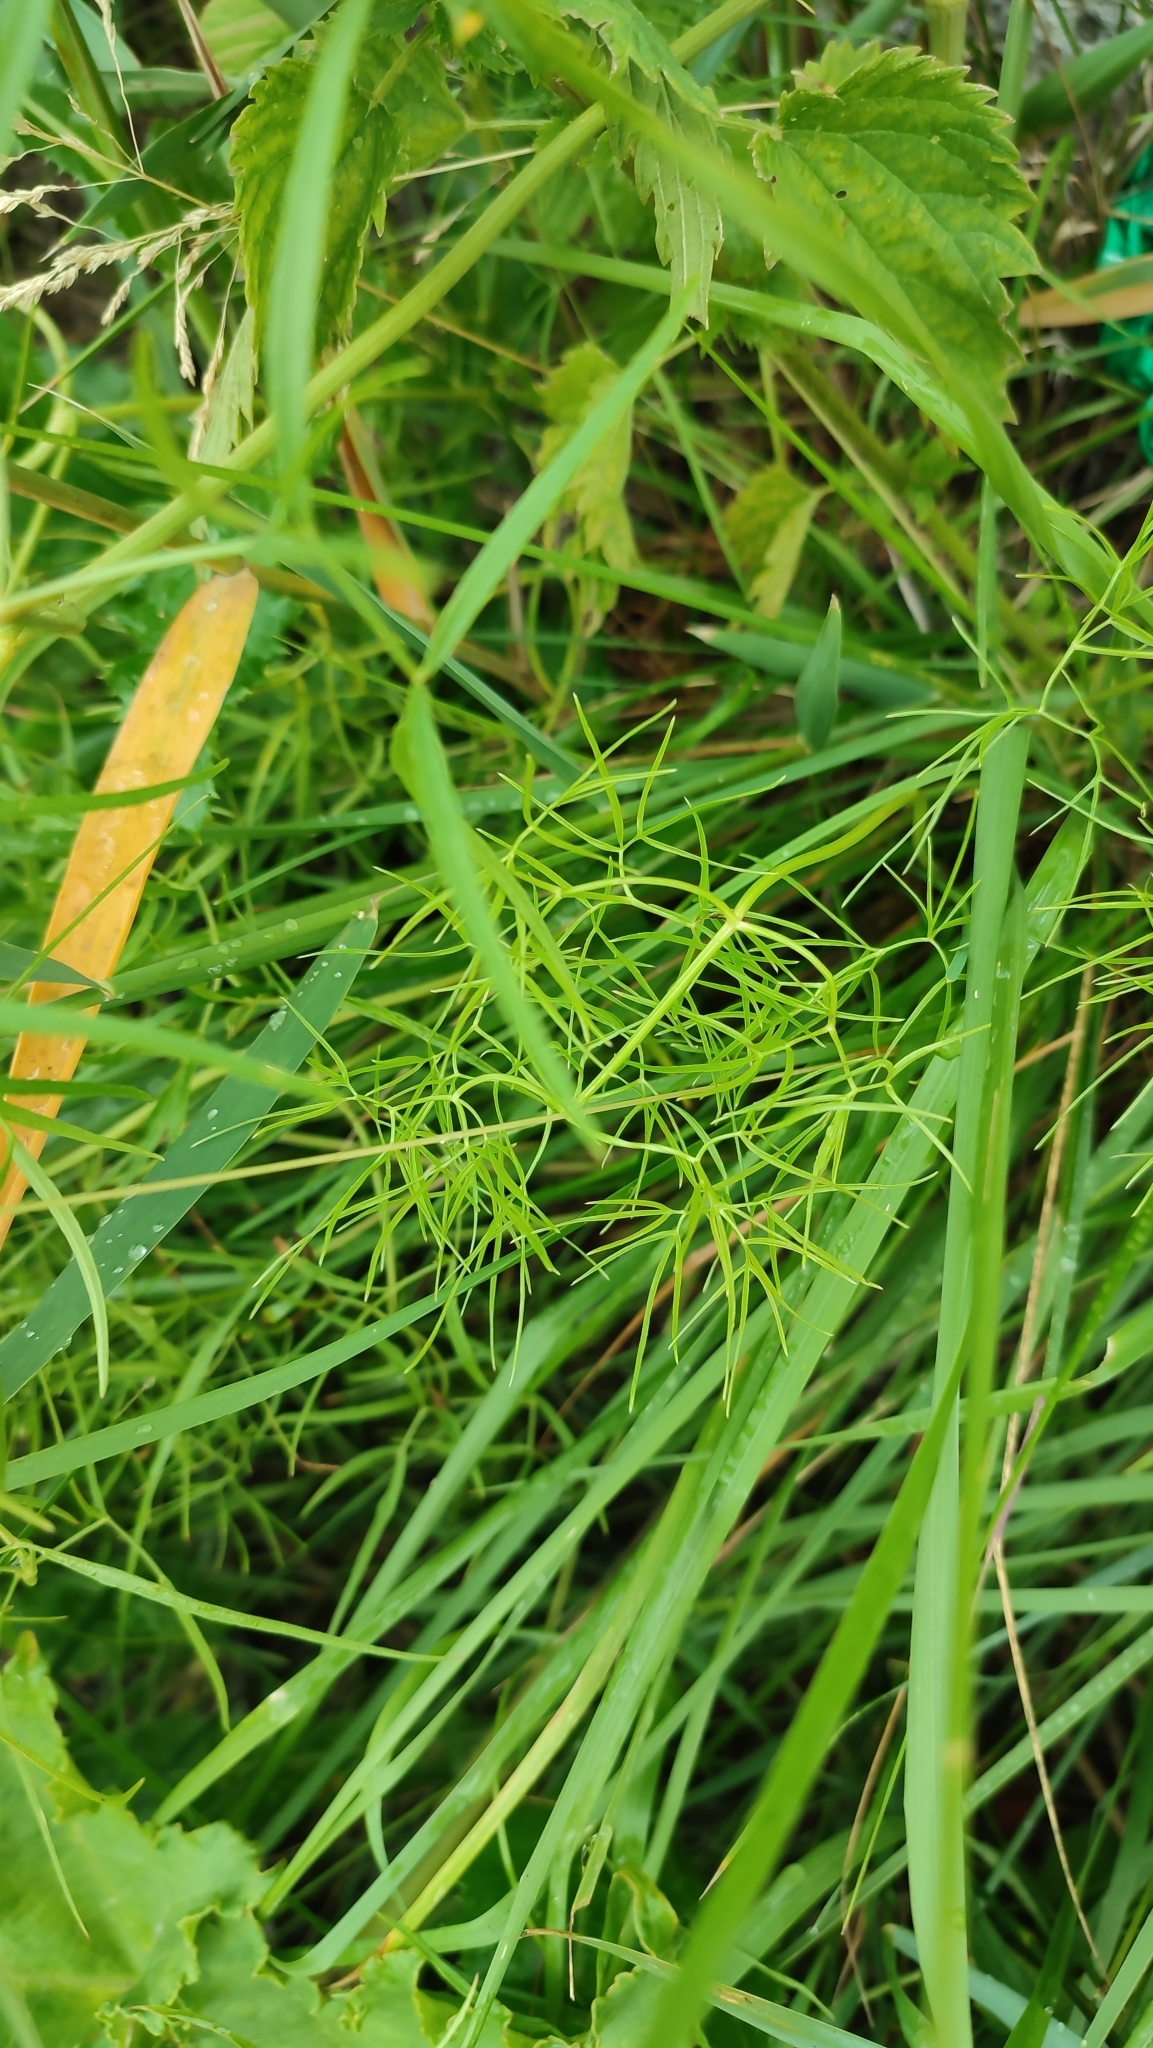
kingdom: Plantae
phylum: Tracheophyta
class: Magnoliopsida
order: Apiales
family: Apiaceae
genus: Cenolophium
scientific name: Cenolophium fischeri
